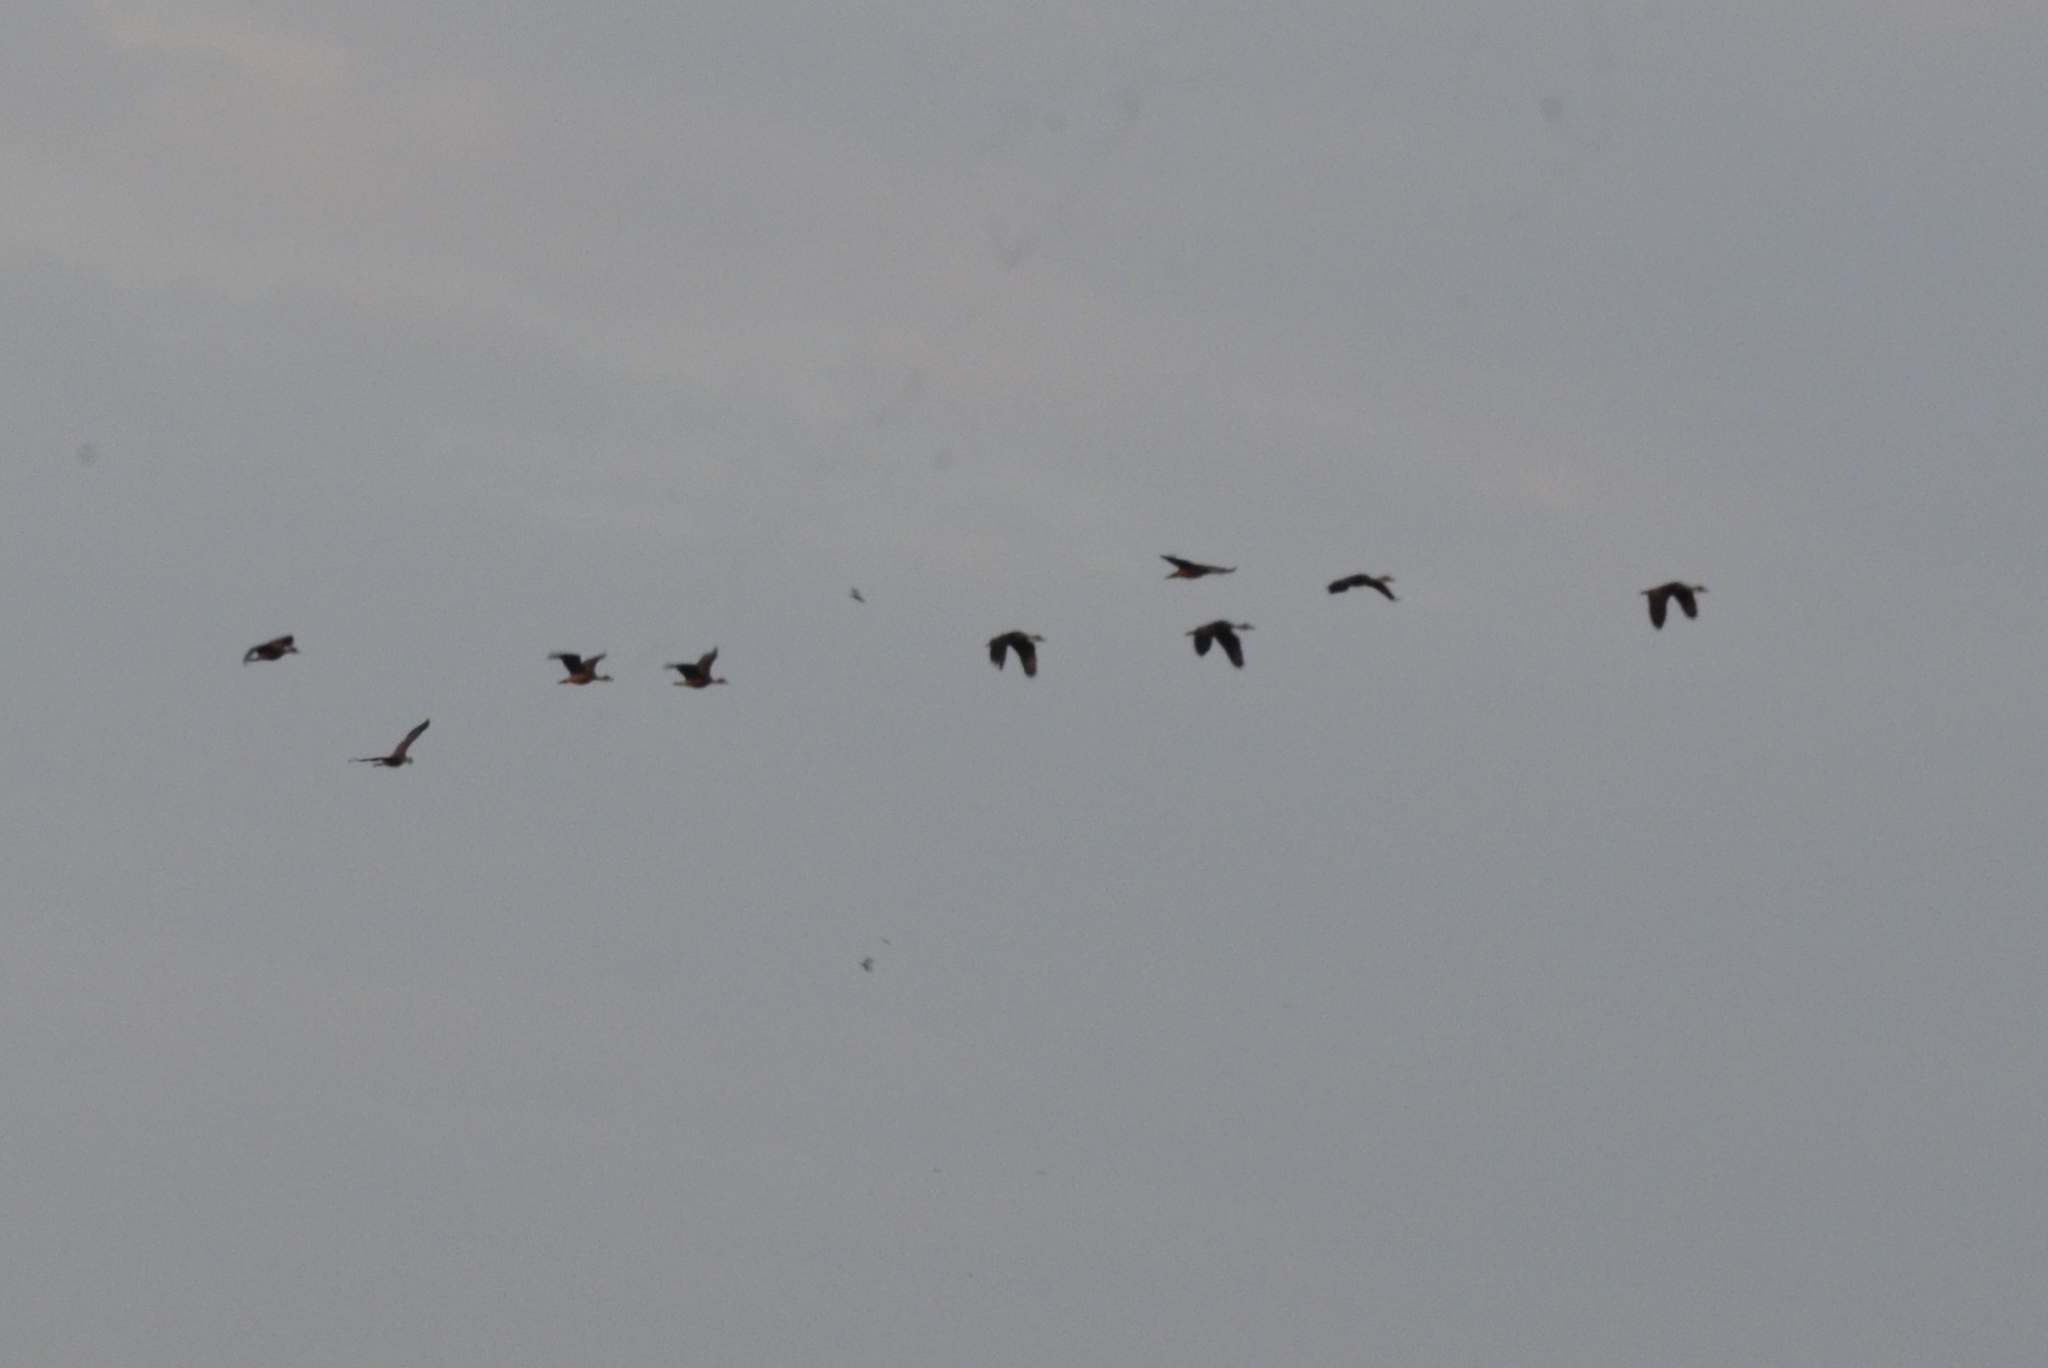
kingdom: Animalia
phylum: Chordata
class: Aves
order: Anseriformes
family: Anatidae
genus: Dendrocygna
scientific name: Dendrocygna javanica
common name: Lesser whistling-duck
